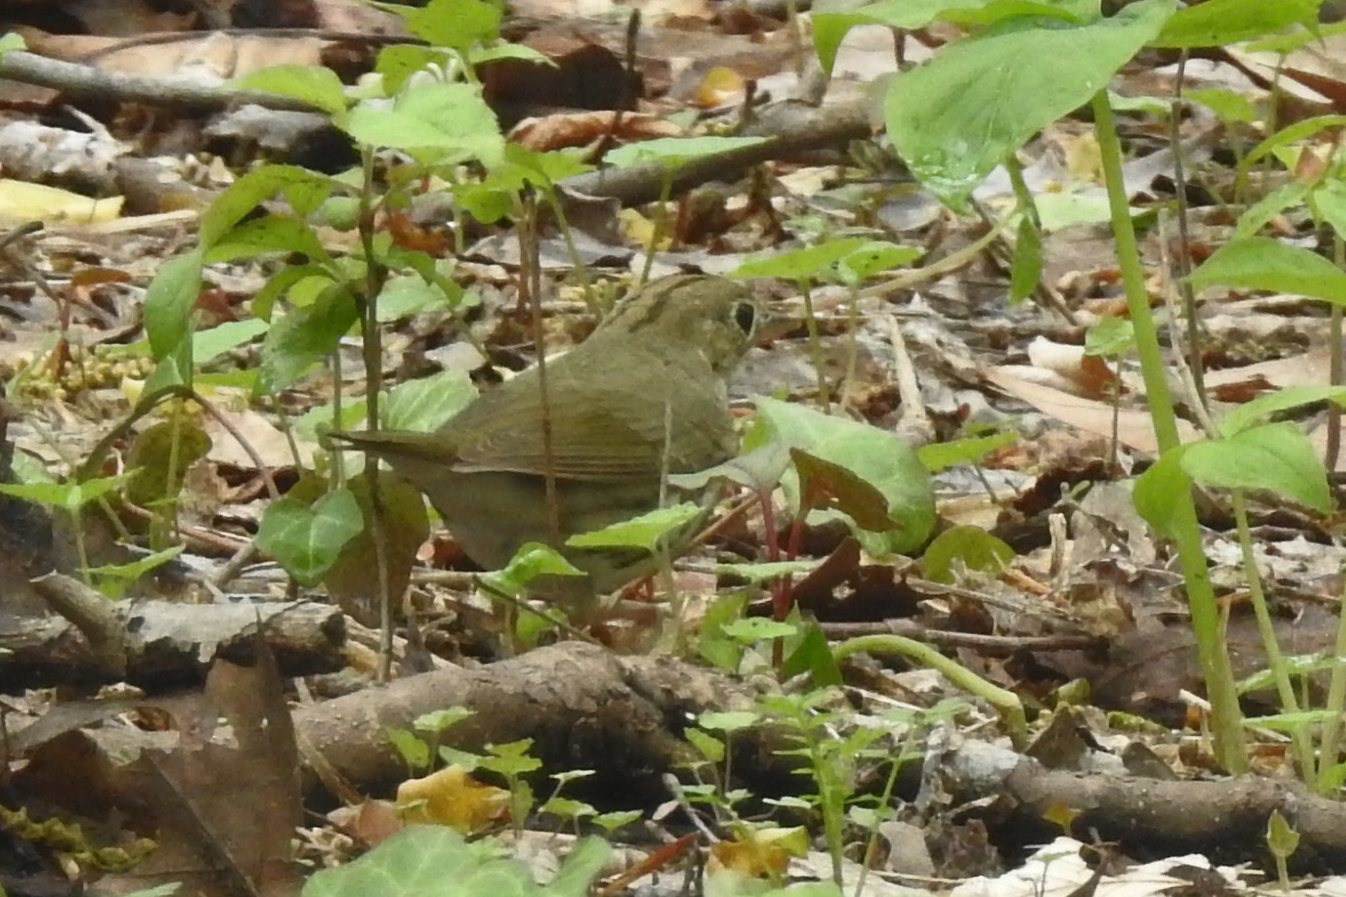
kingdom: Animalia
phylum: Chordata
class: Aves
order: Passeriformes
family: Parulidae
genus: Seiurus
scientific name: Seiurus aurocapilla
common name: Ovenbird
